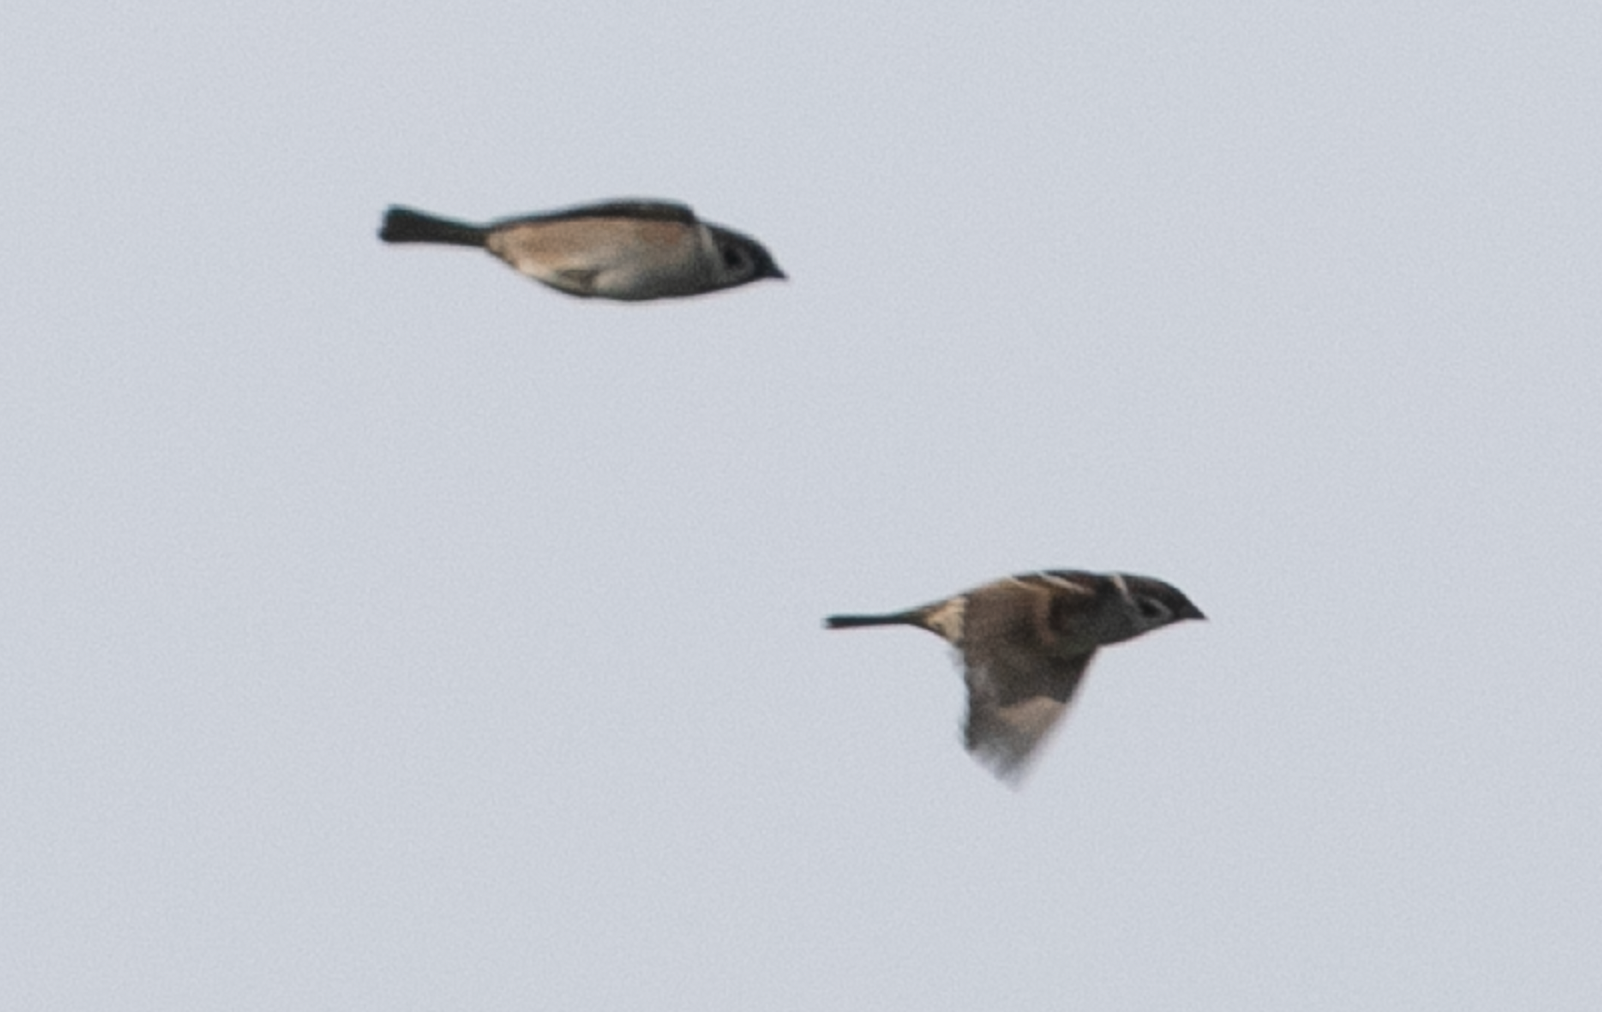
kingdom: Animalia
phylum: Chordata
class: Aves
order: Passeriformes
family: Passeridae
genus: Passer
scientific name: Passer montanus
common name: Eurasian tree sparrow
